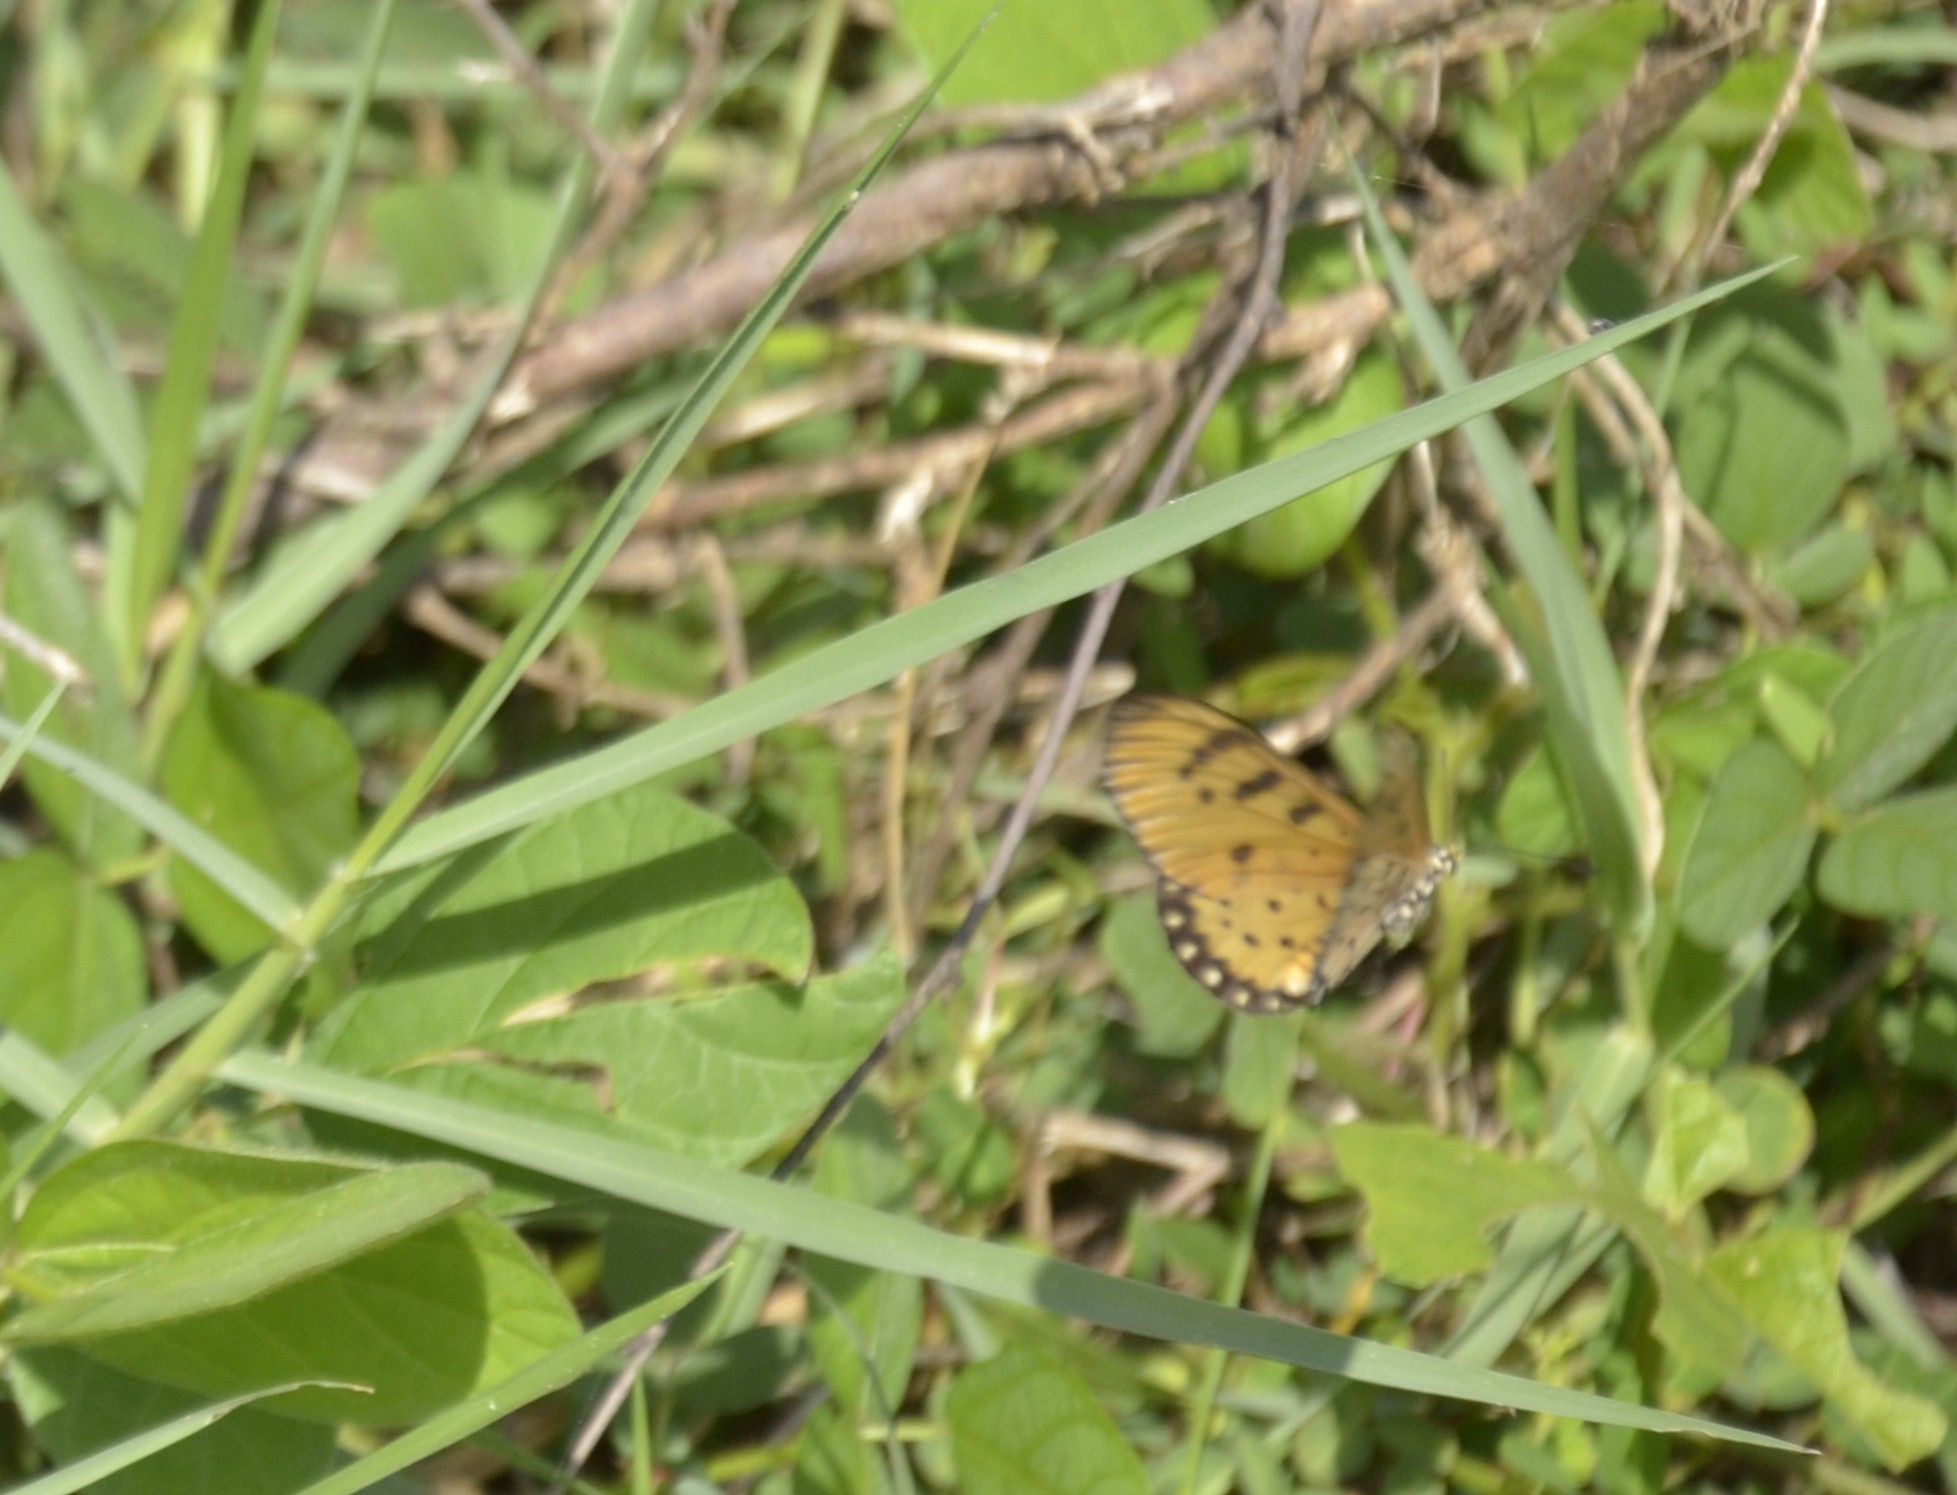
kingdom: Animalia
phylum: Arthropoda
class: Insecta
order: Lepidoptera
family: Nymphalidae
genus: Acraea
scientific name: Acraea terpsicore
